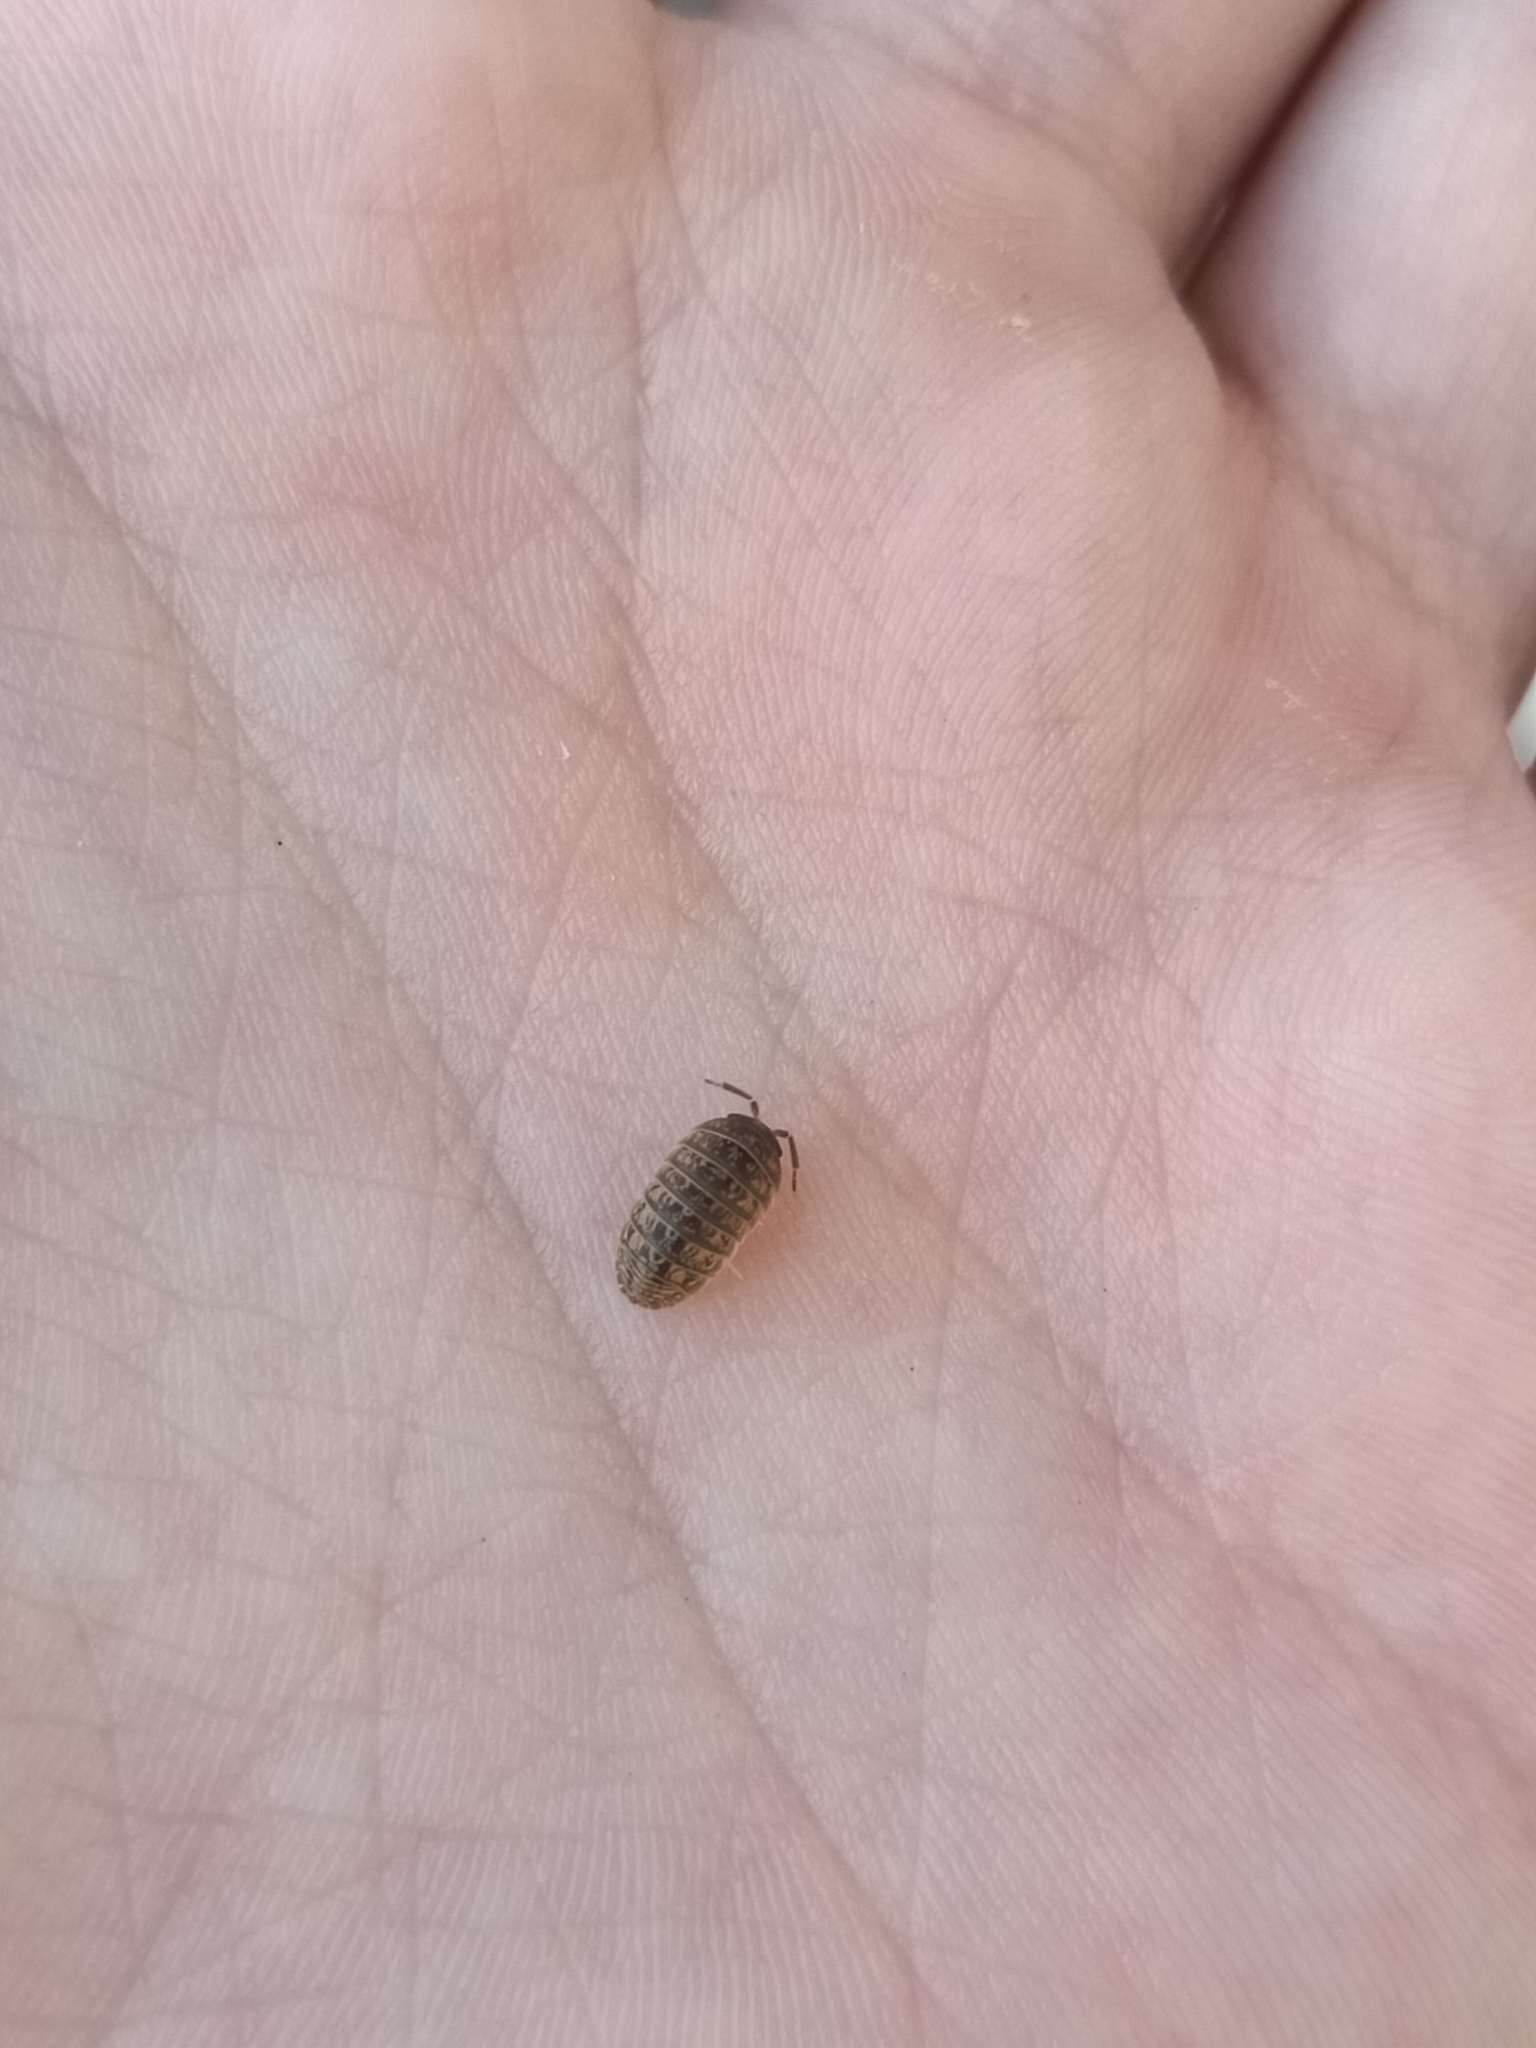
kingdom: Animalia
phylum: Arthropoda
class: Malacostraca
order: Isopoda
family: Armadillidiidae
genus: Armadillidium
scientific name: Armadillidium versicolor
